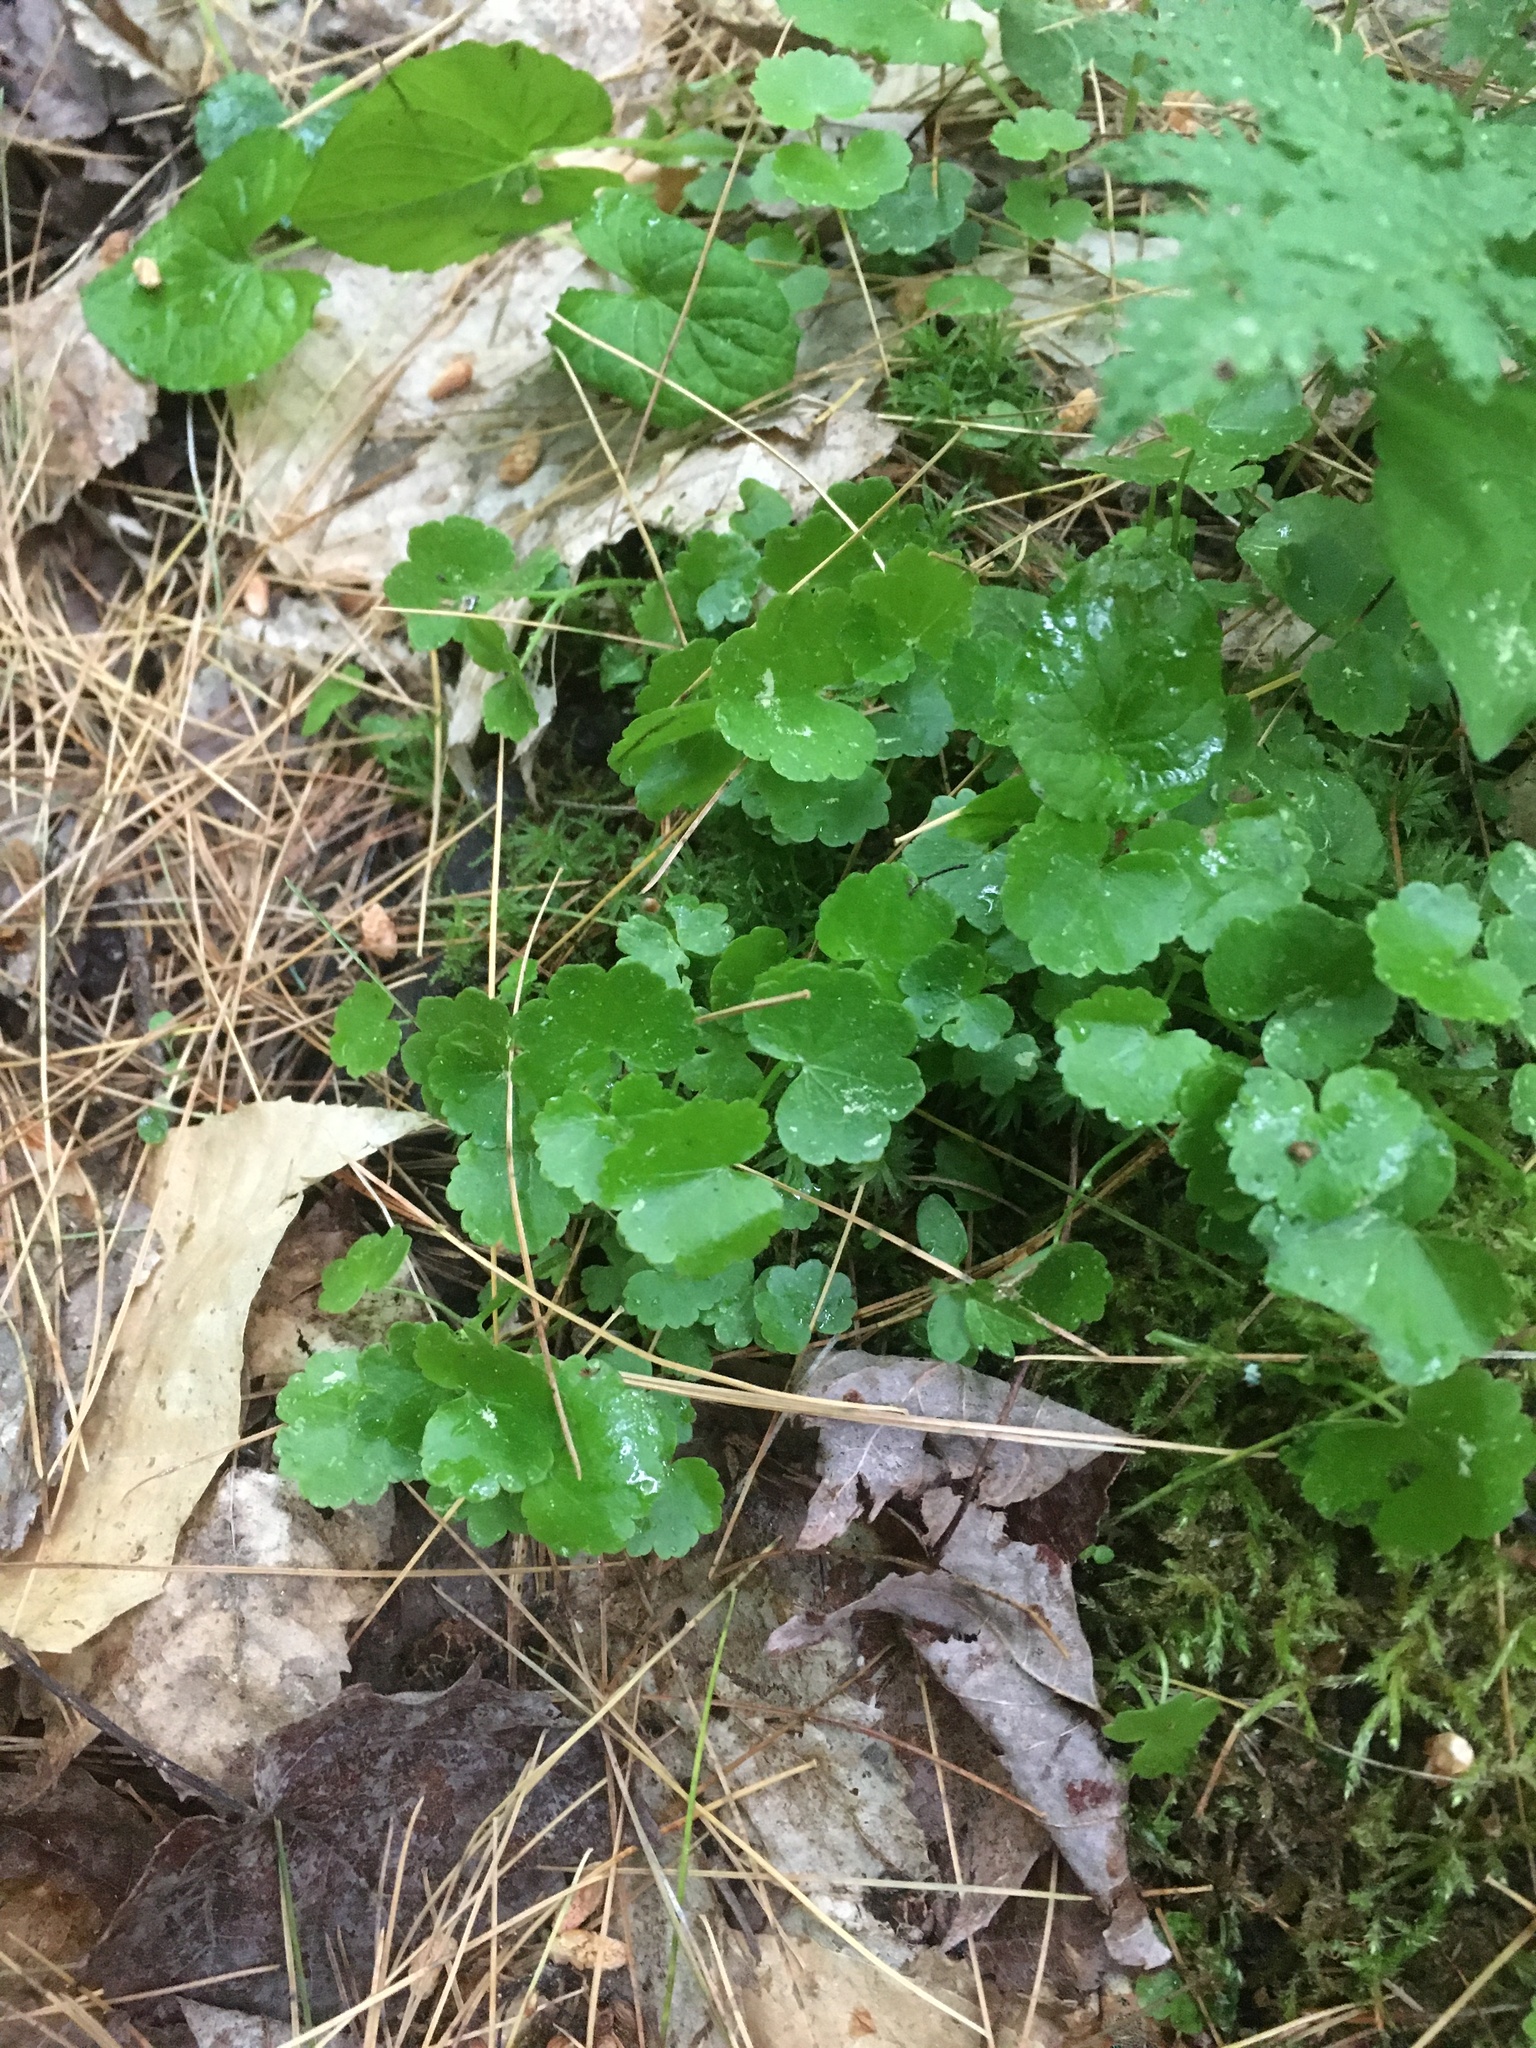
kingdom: Plantae
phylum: Tracheophyta
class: Magnoliopsida
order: Apiales
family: Araliaceae
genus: Hydrocotyle
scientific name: Hydrocotyle americana
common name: American water-pennywort
